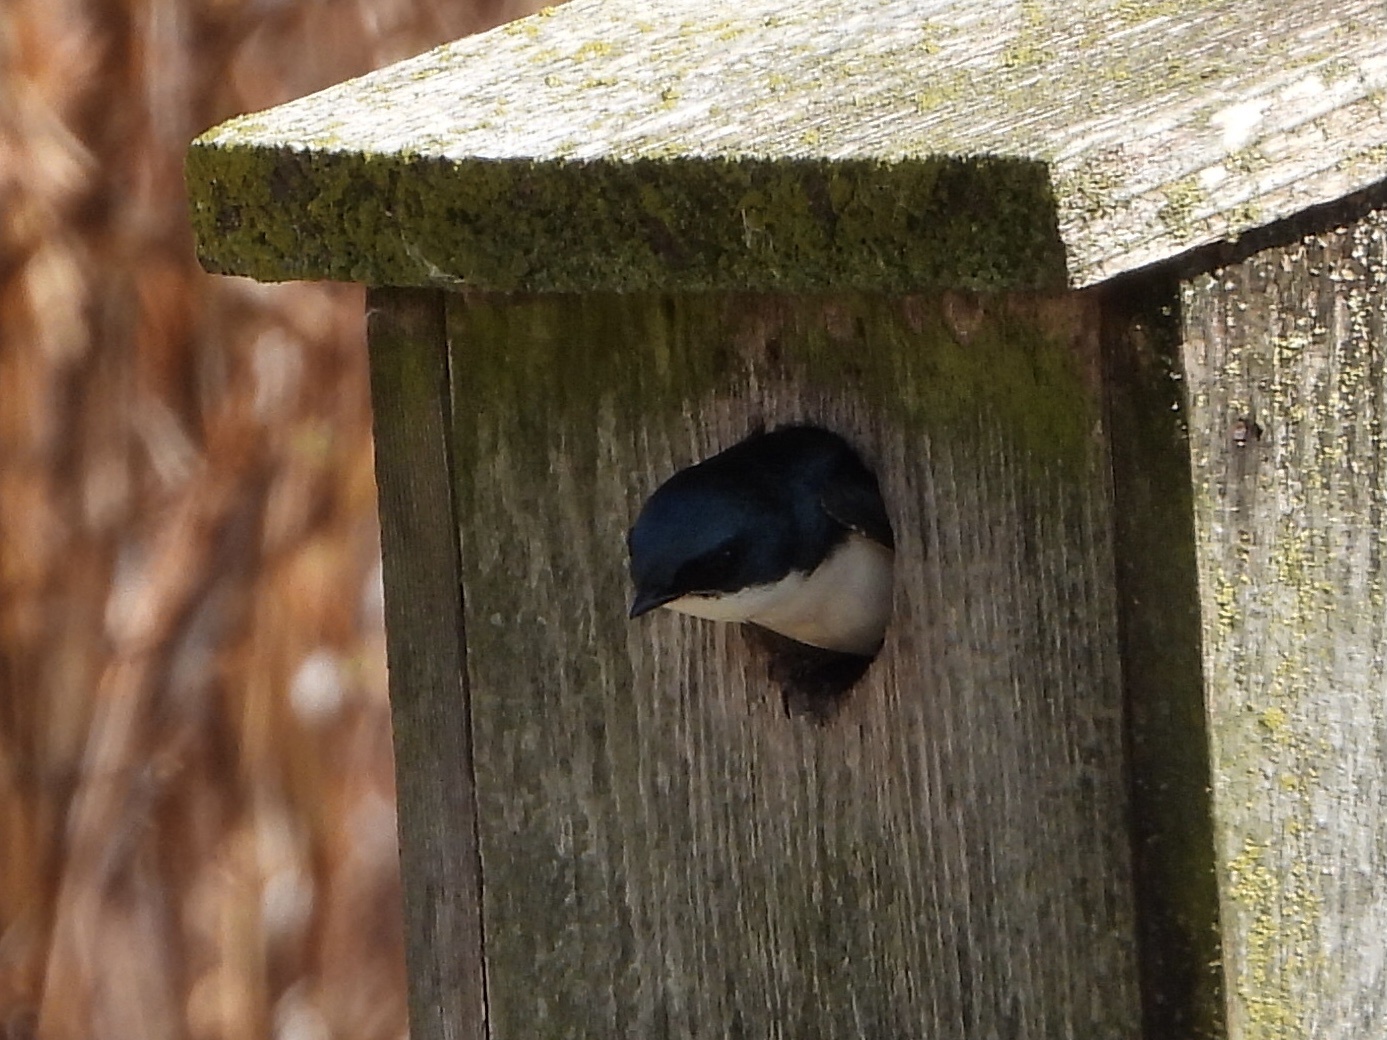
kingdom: Animalia
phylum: Chordata
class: Aves
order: Passeriformes
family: Hirundinidae
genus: Tachycineta
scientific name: Tachycineta bicolor
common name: Tree swallow
